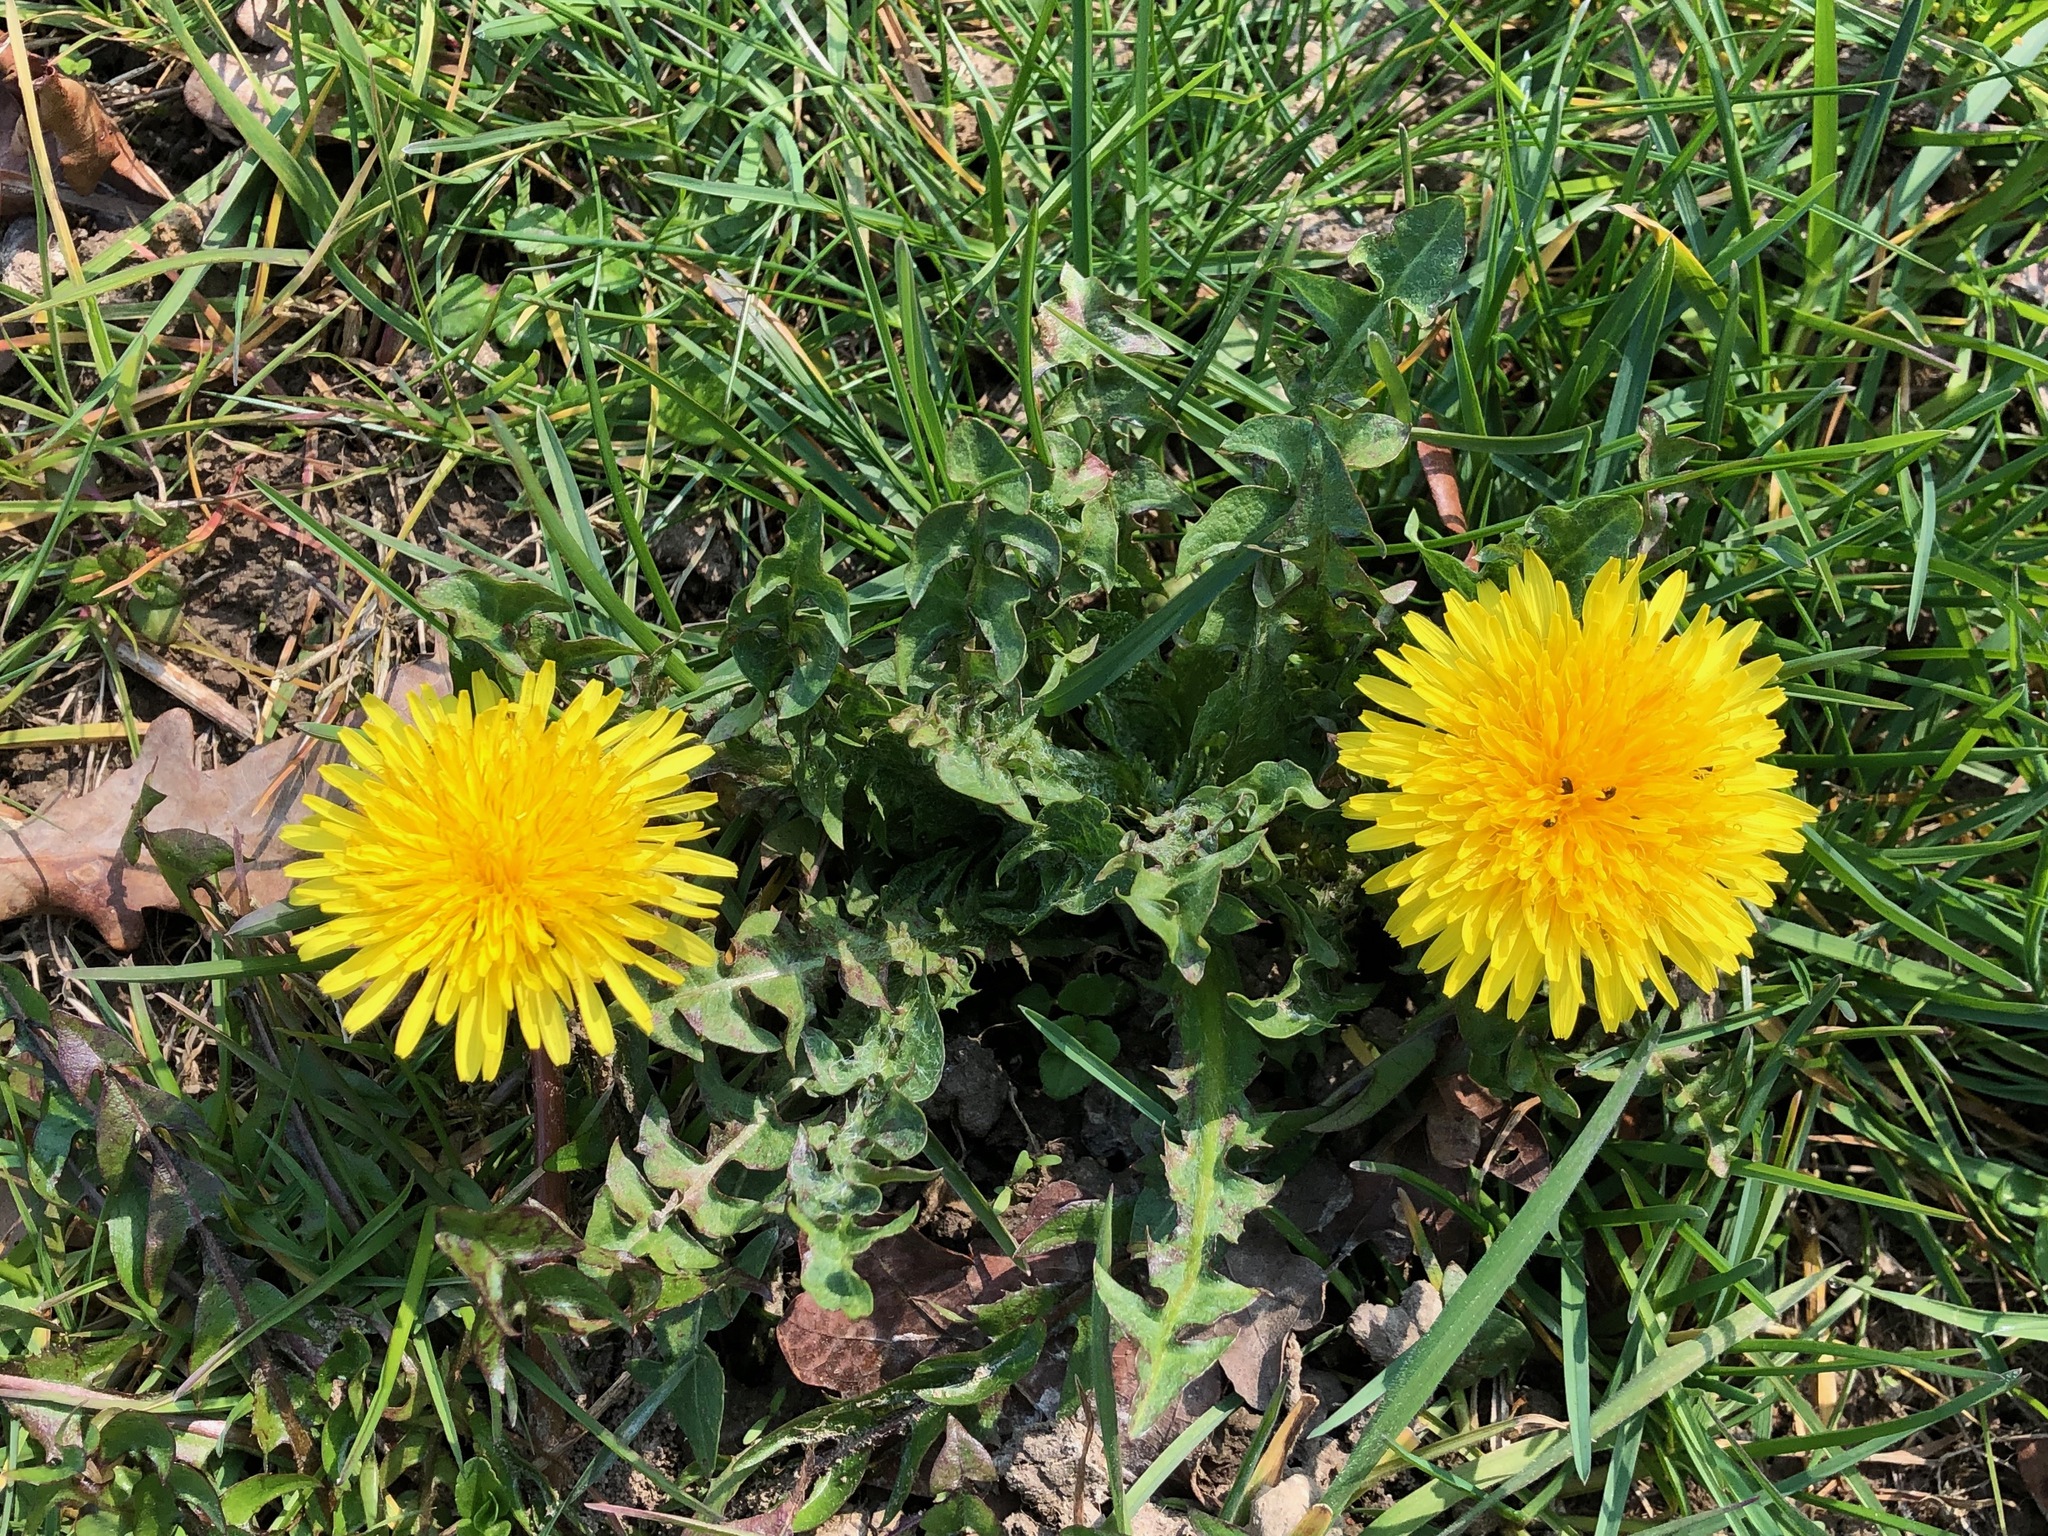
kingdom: Plantae
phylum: Tracheophyta
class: Magnoliopsida
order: Asterales
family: Asteraceae
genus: Taraxacum
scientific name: Taraxacum officinale
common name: Common dandelion
